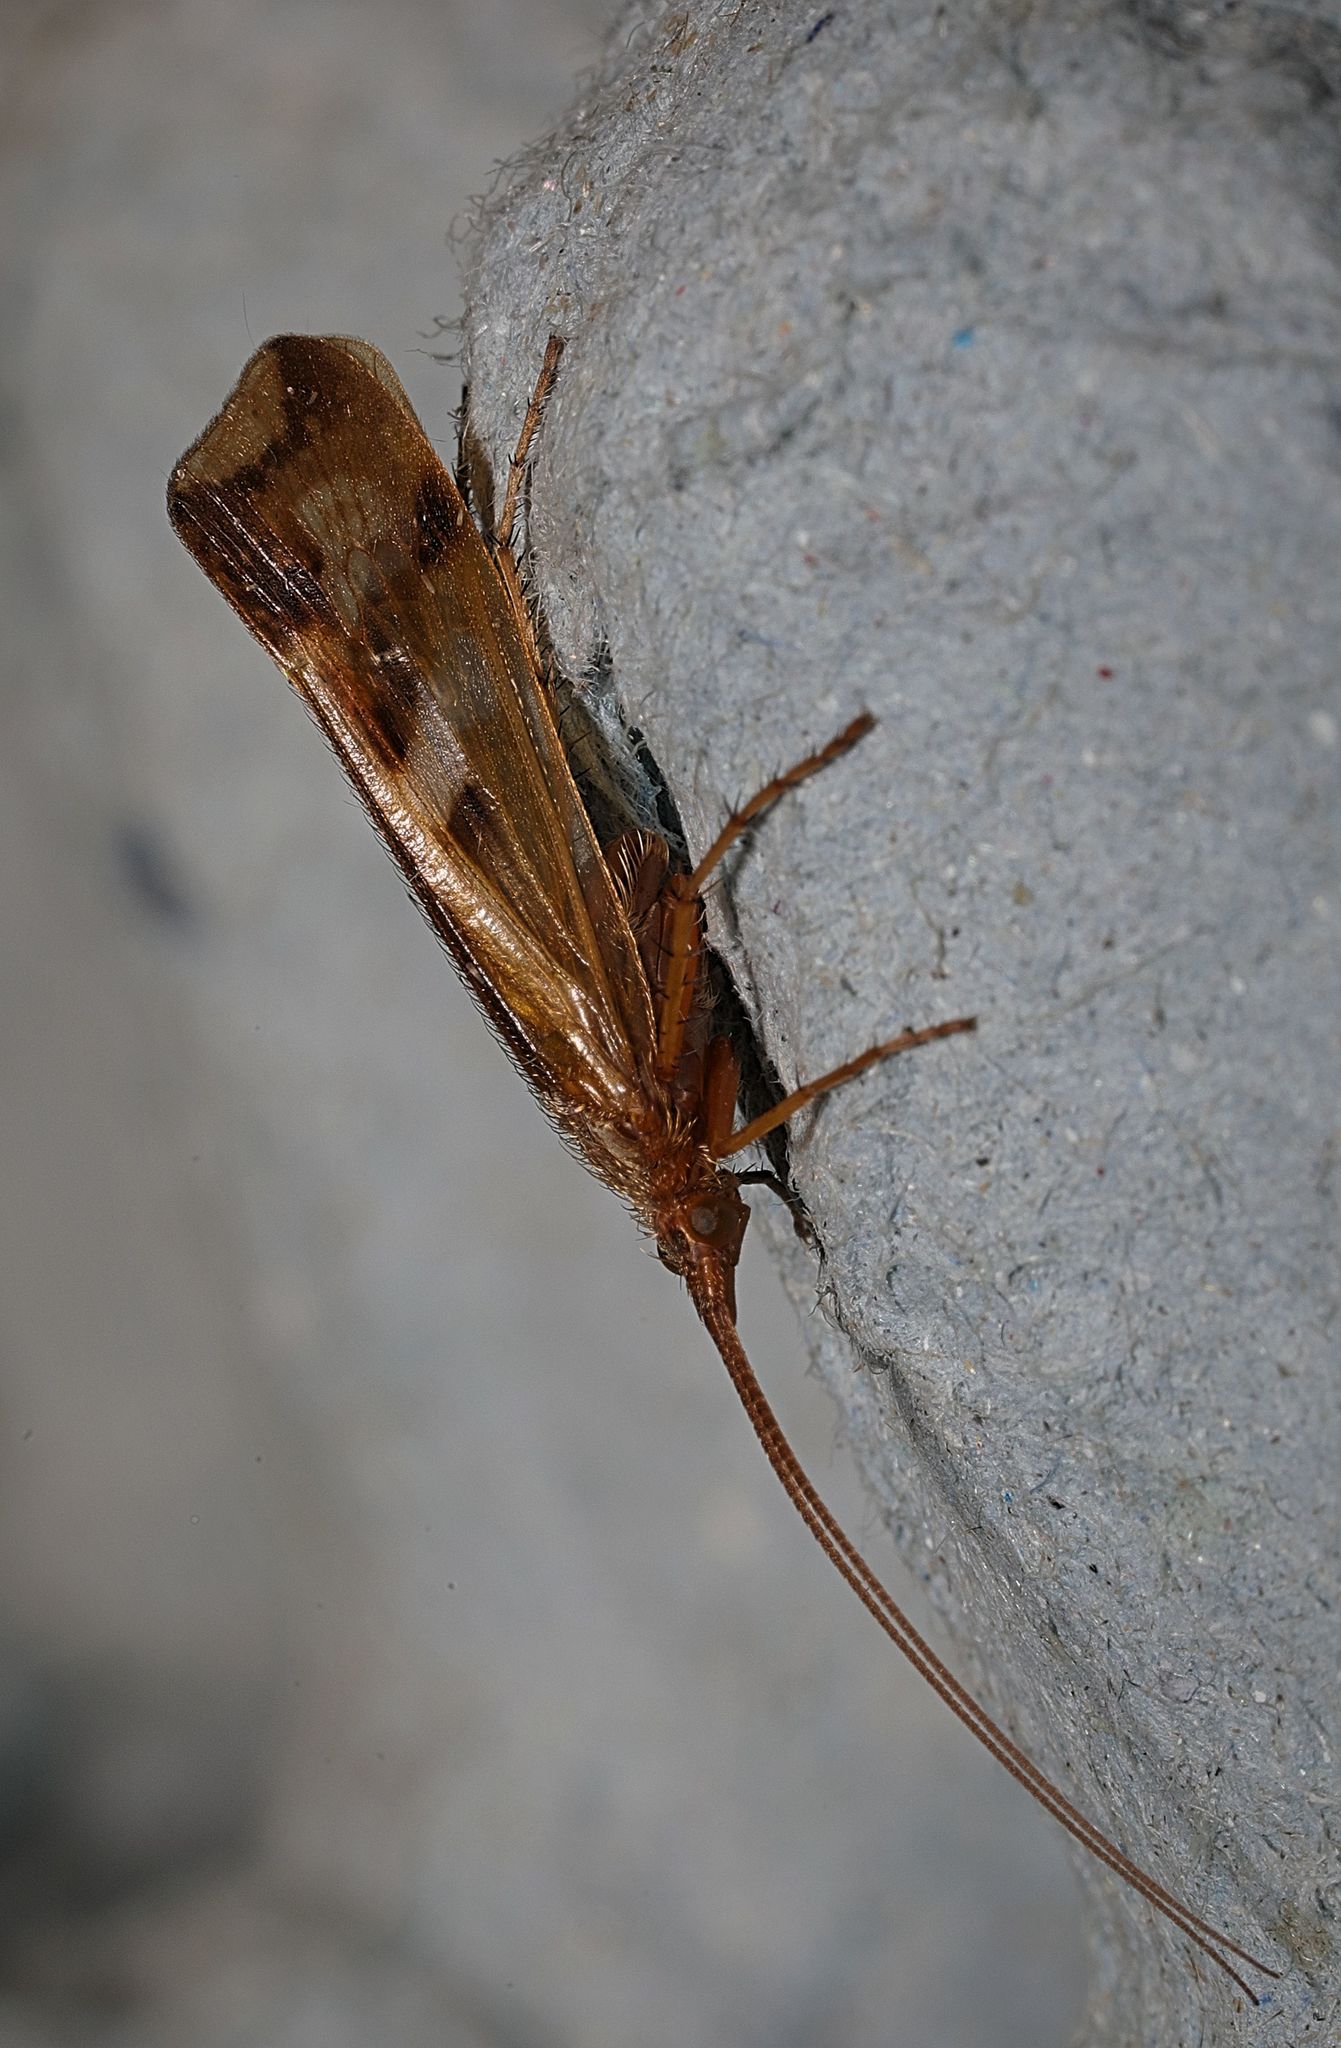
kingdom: Animalia
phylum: Arthropoda
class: Insecta
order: Trichoptera
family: Limnephilidae
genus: Limnephilus
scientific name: Limnephilus lunatus
